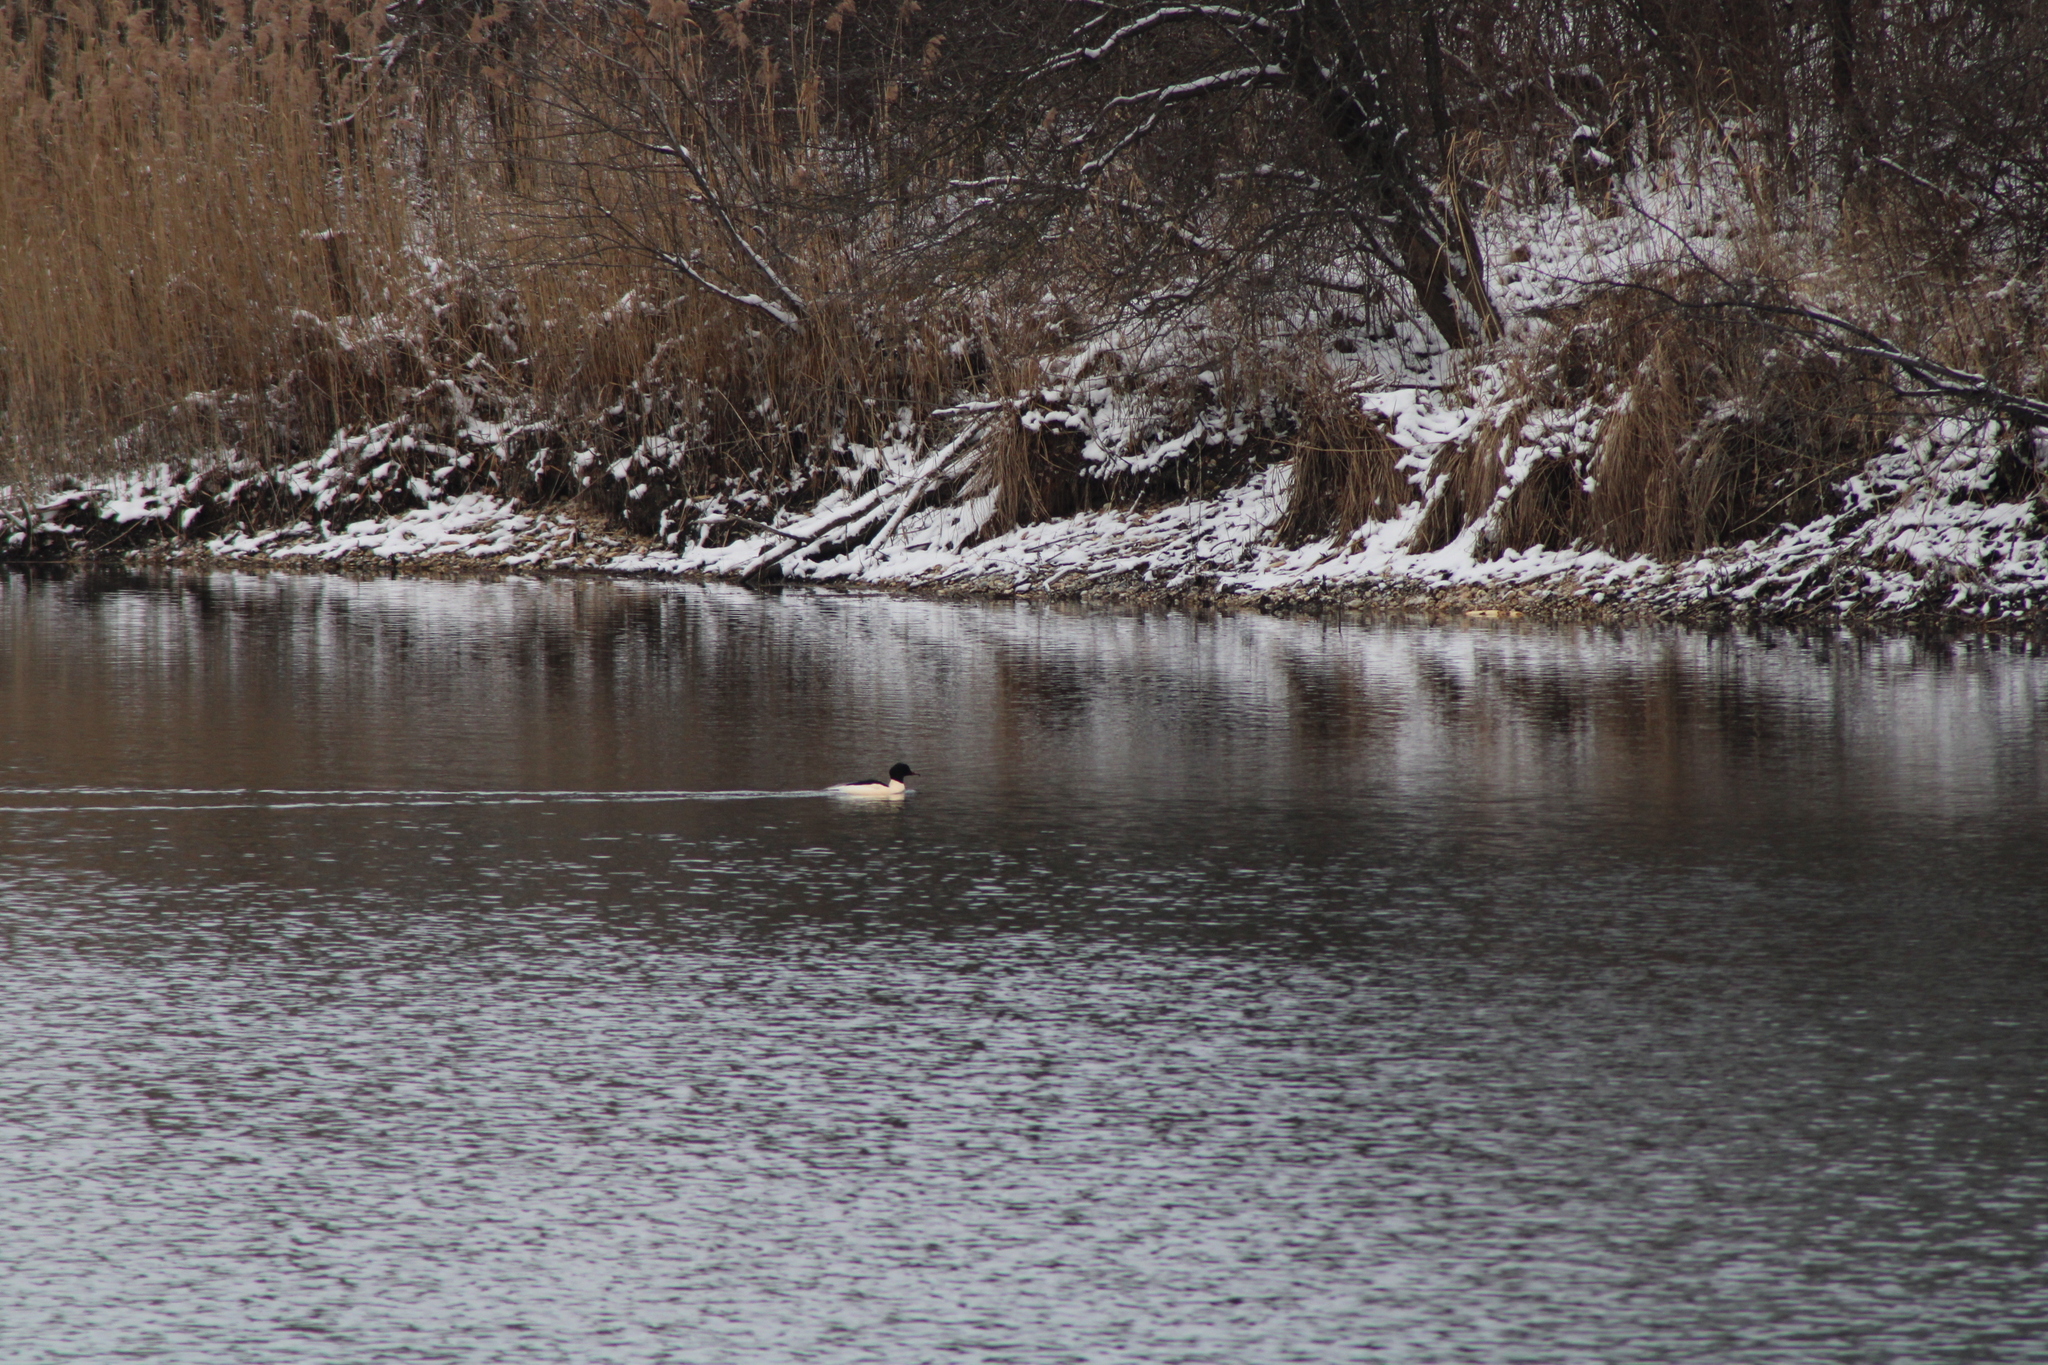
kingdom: Animalia
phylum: Chordata
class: Aves
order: Anseriformes
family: Anatidae
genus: Mergus
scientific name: Mergus merganser
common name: Common merganser
